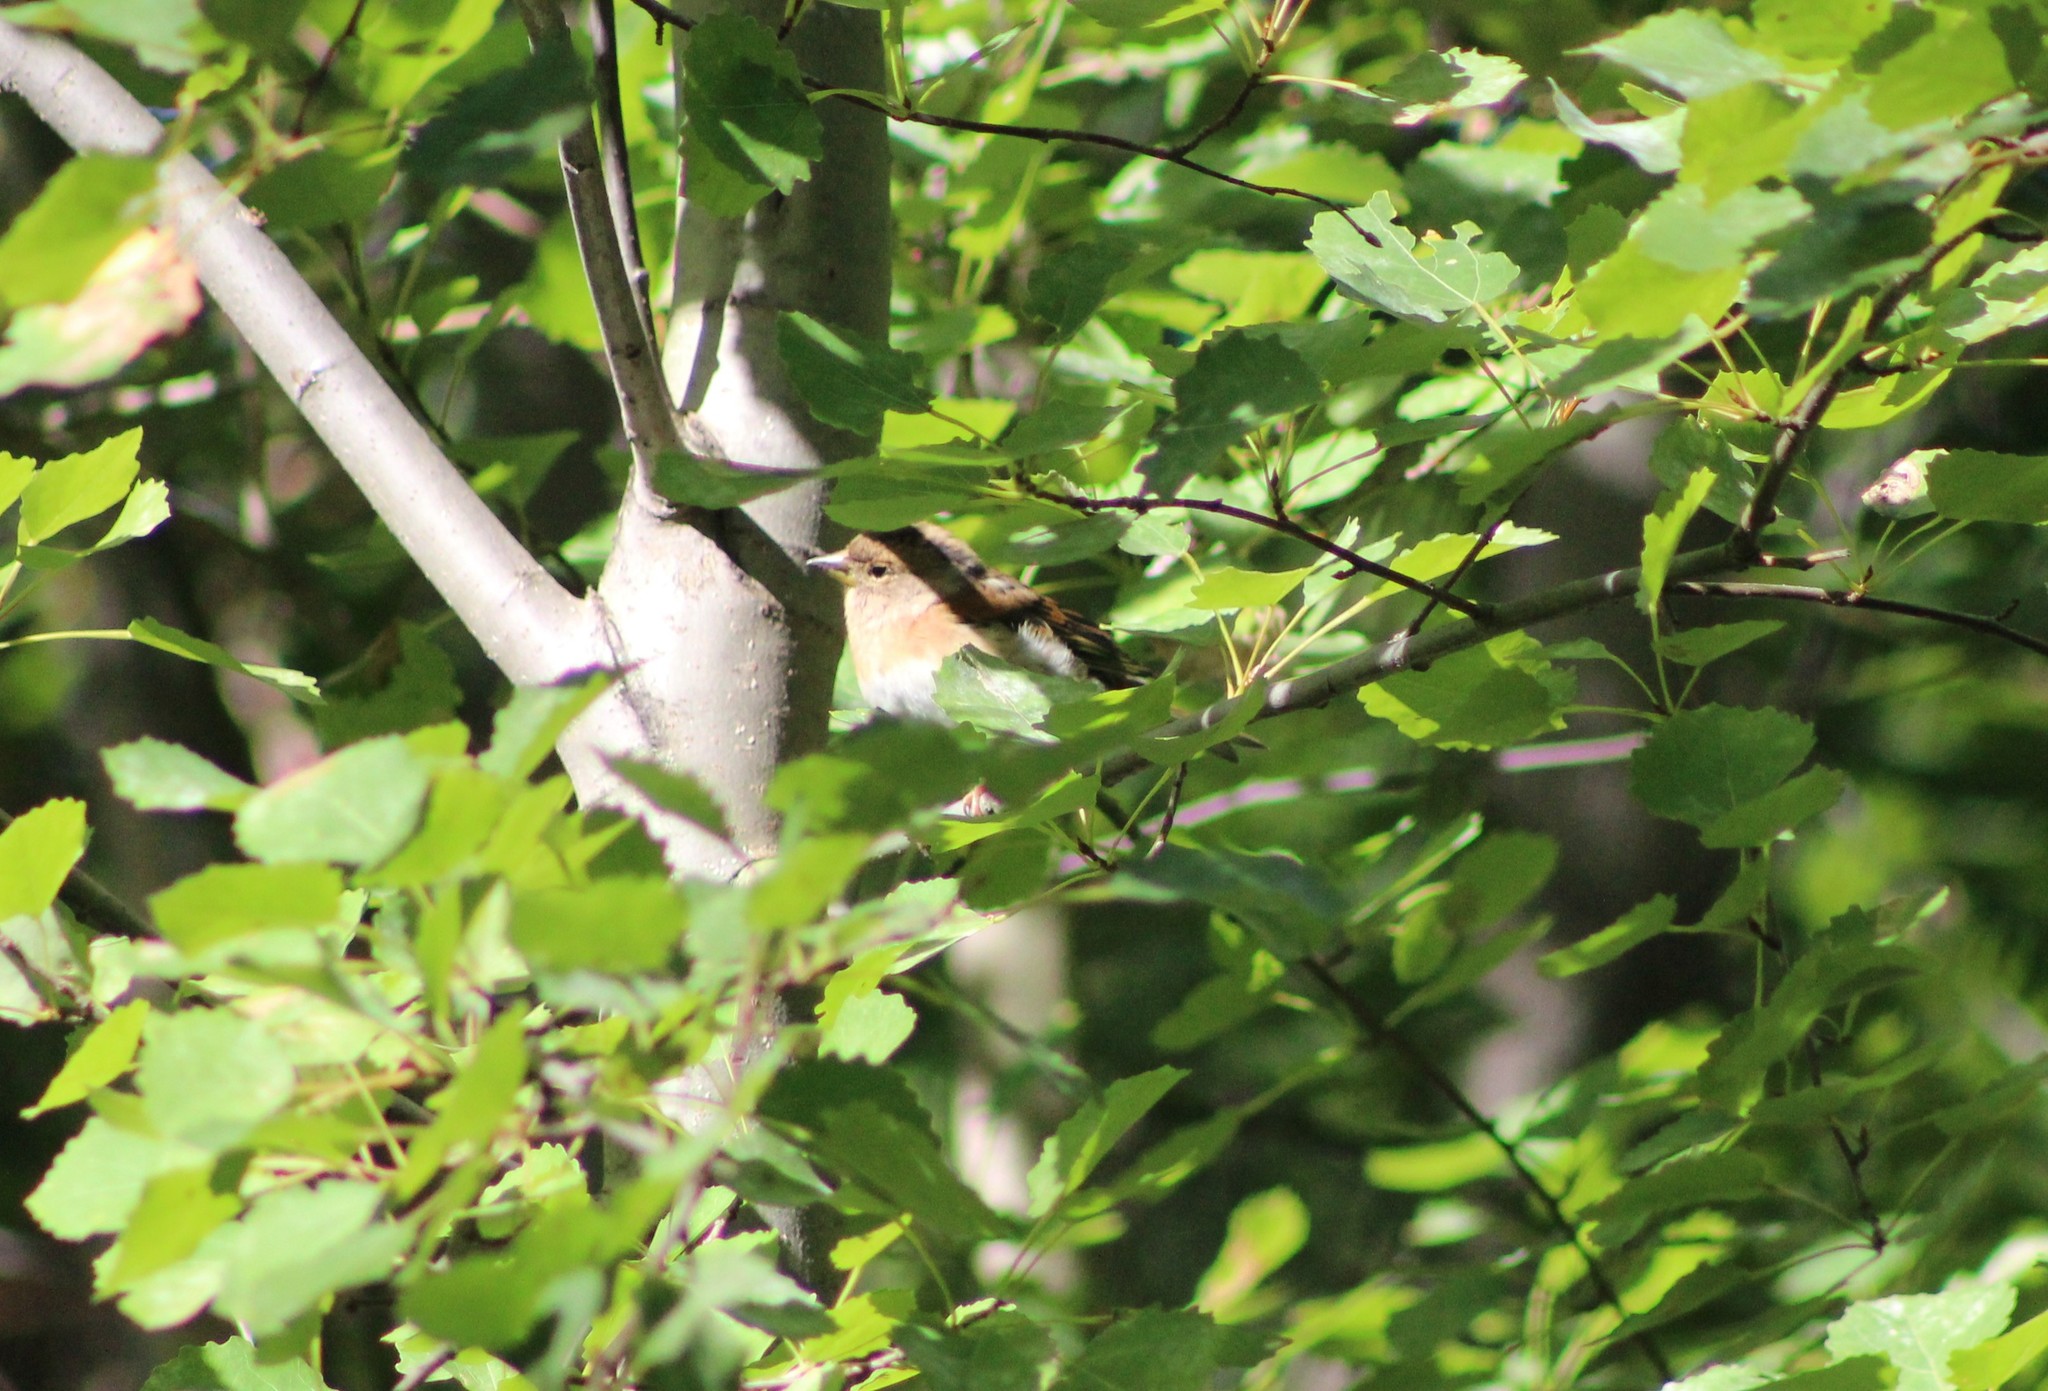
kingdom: Animalia
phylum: Chordata
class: Aves
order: Passeriformes
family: Fringillidae
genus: Fringilla
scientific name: Fringilla montifringilla
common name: Brambling
